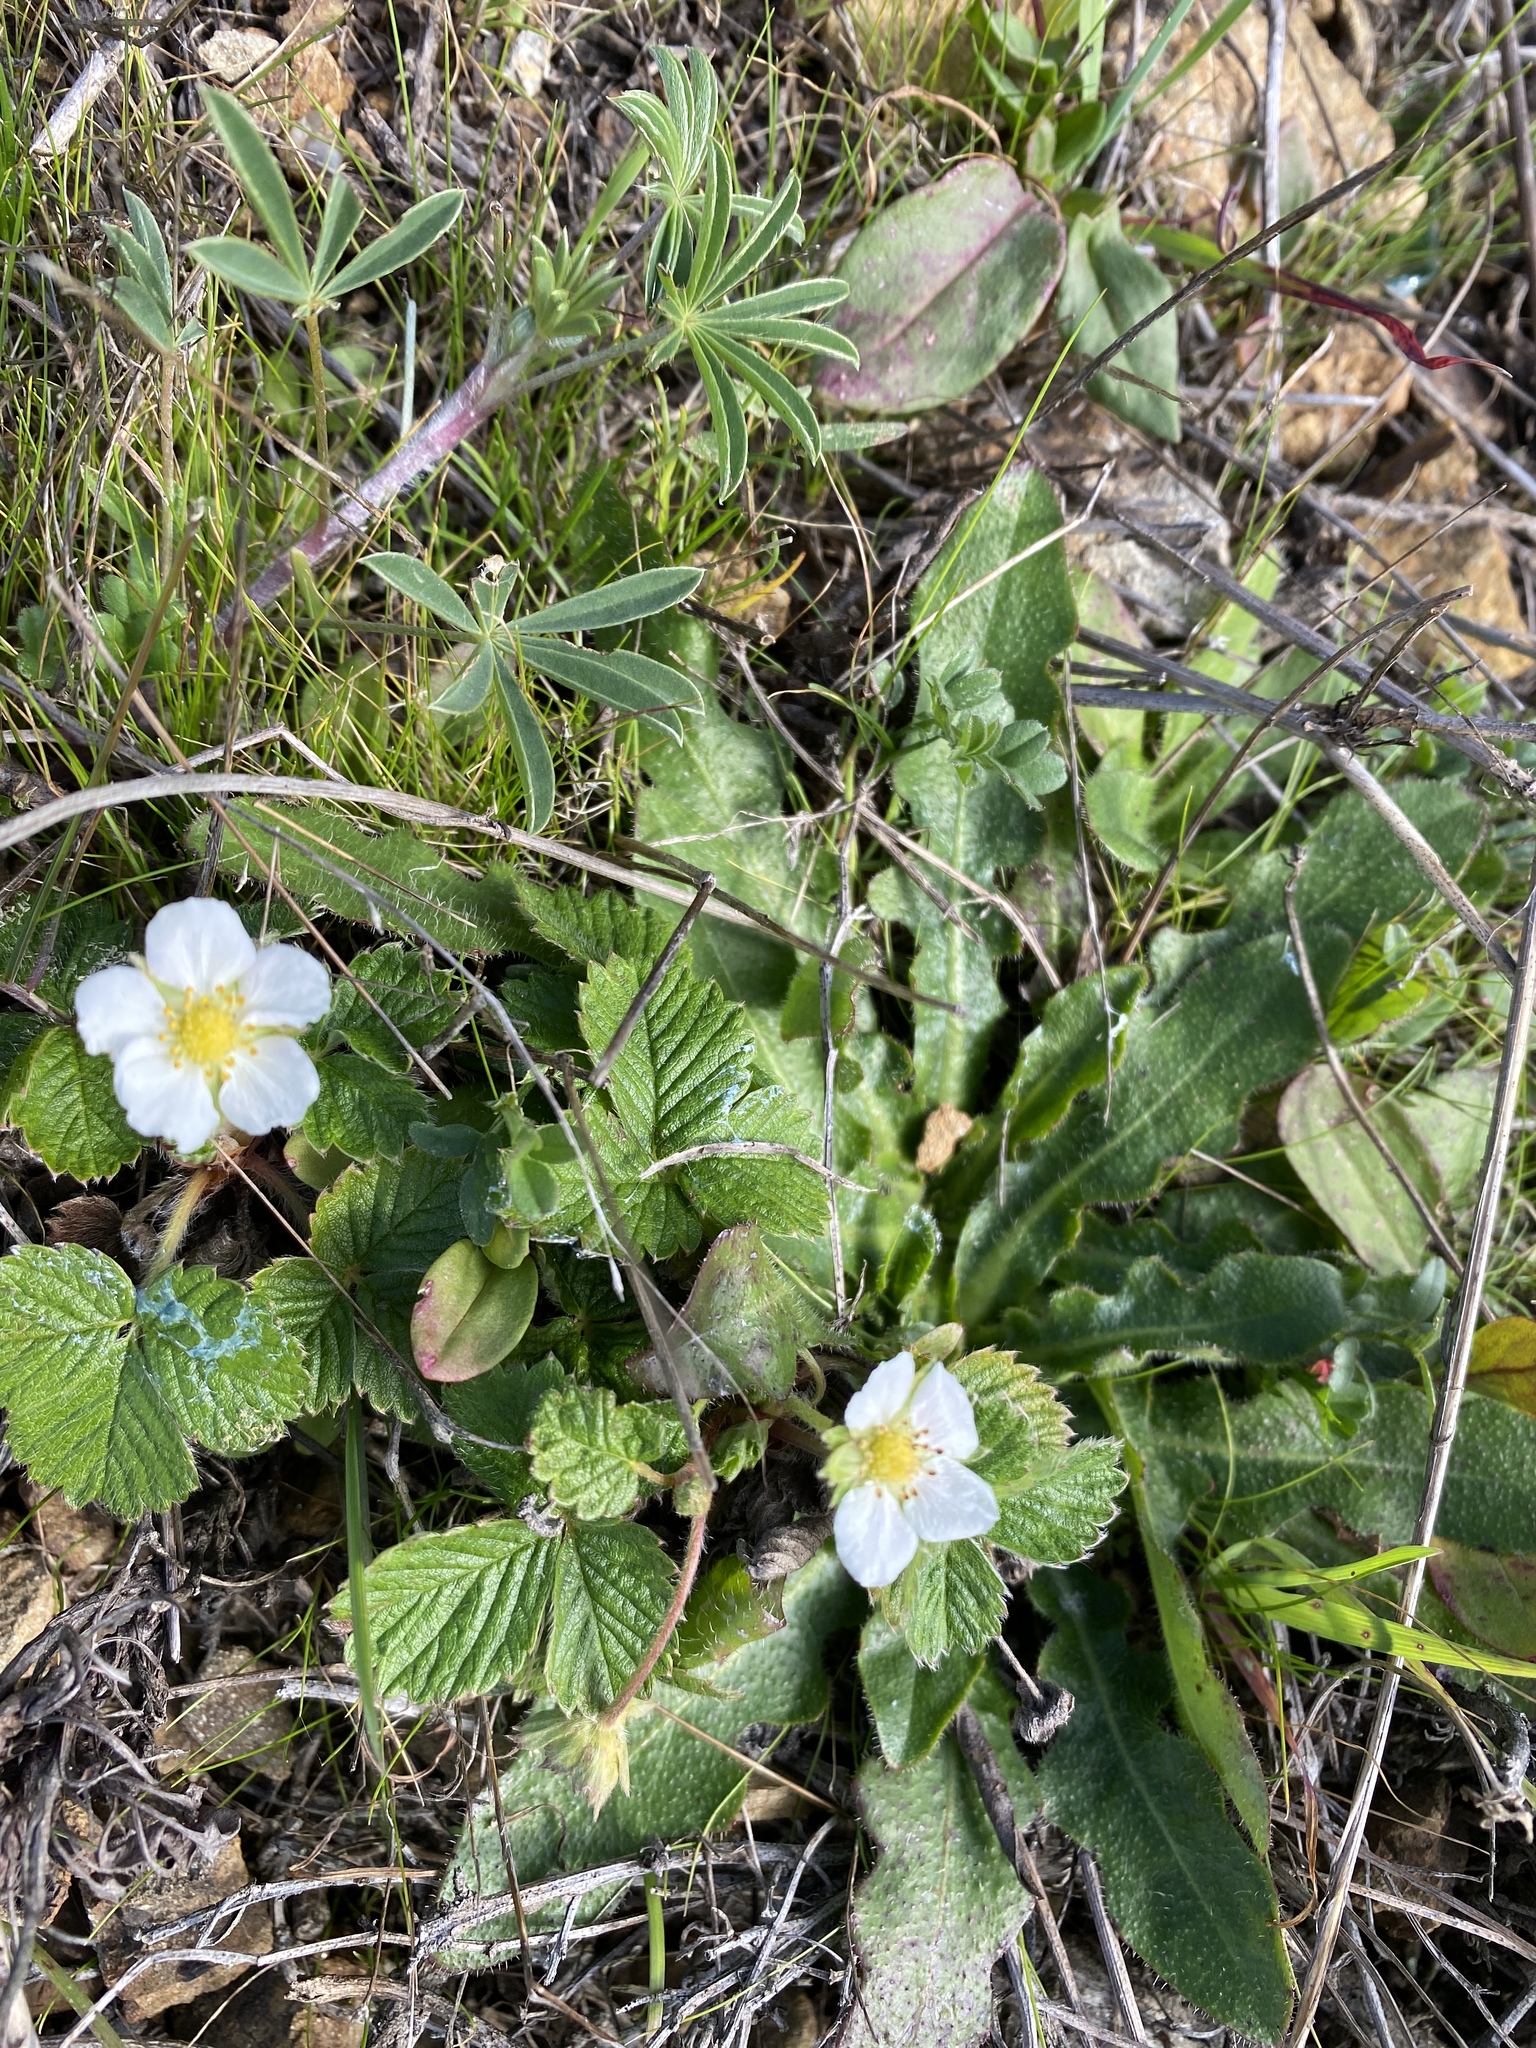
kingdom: Plantae
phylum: Tracheophyta
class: Magnoliopsida
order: Rosales
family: Rosaceae
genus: Fragaria
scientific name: Fragaria vesca
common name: Wild strawberry
